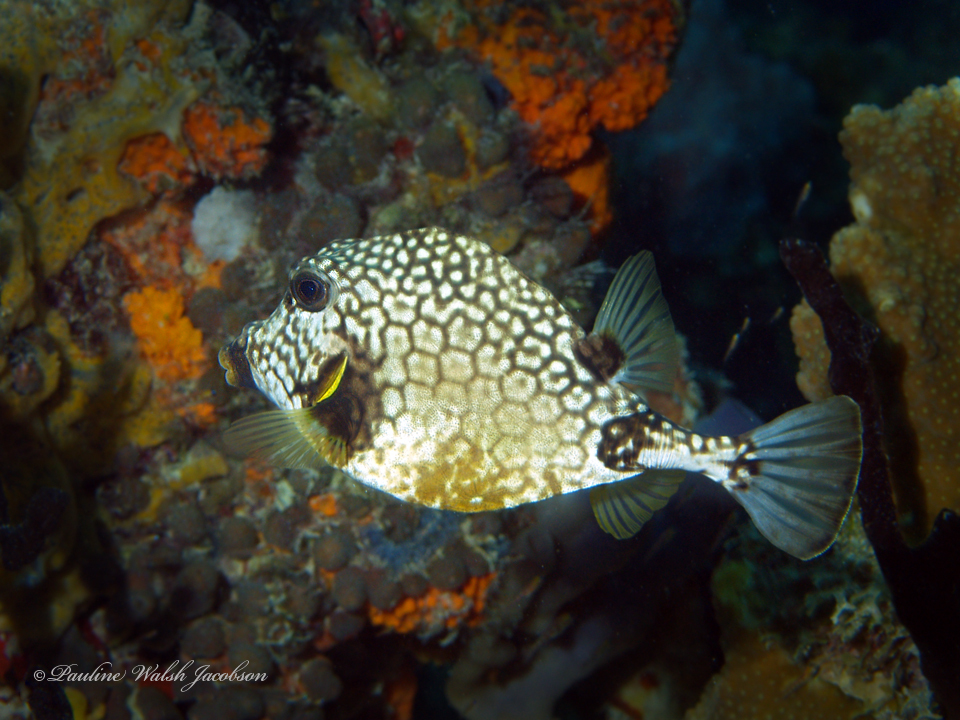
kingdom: Animalia
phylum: Chordata
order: Tetraodontiformes
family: Ostraciidae
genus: Lactophrys
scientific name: Lactophrys triqueter
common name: Smooth trunkfish
